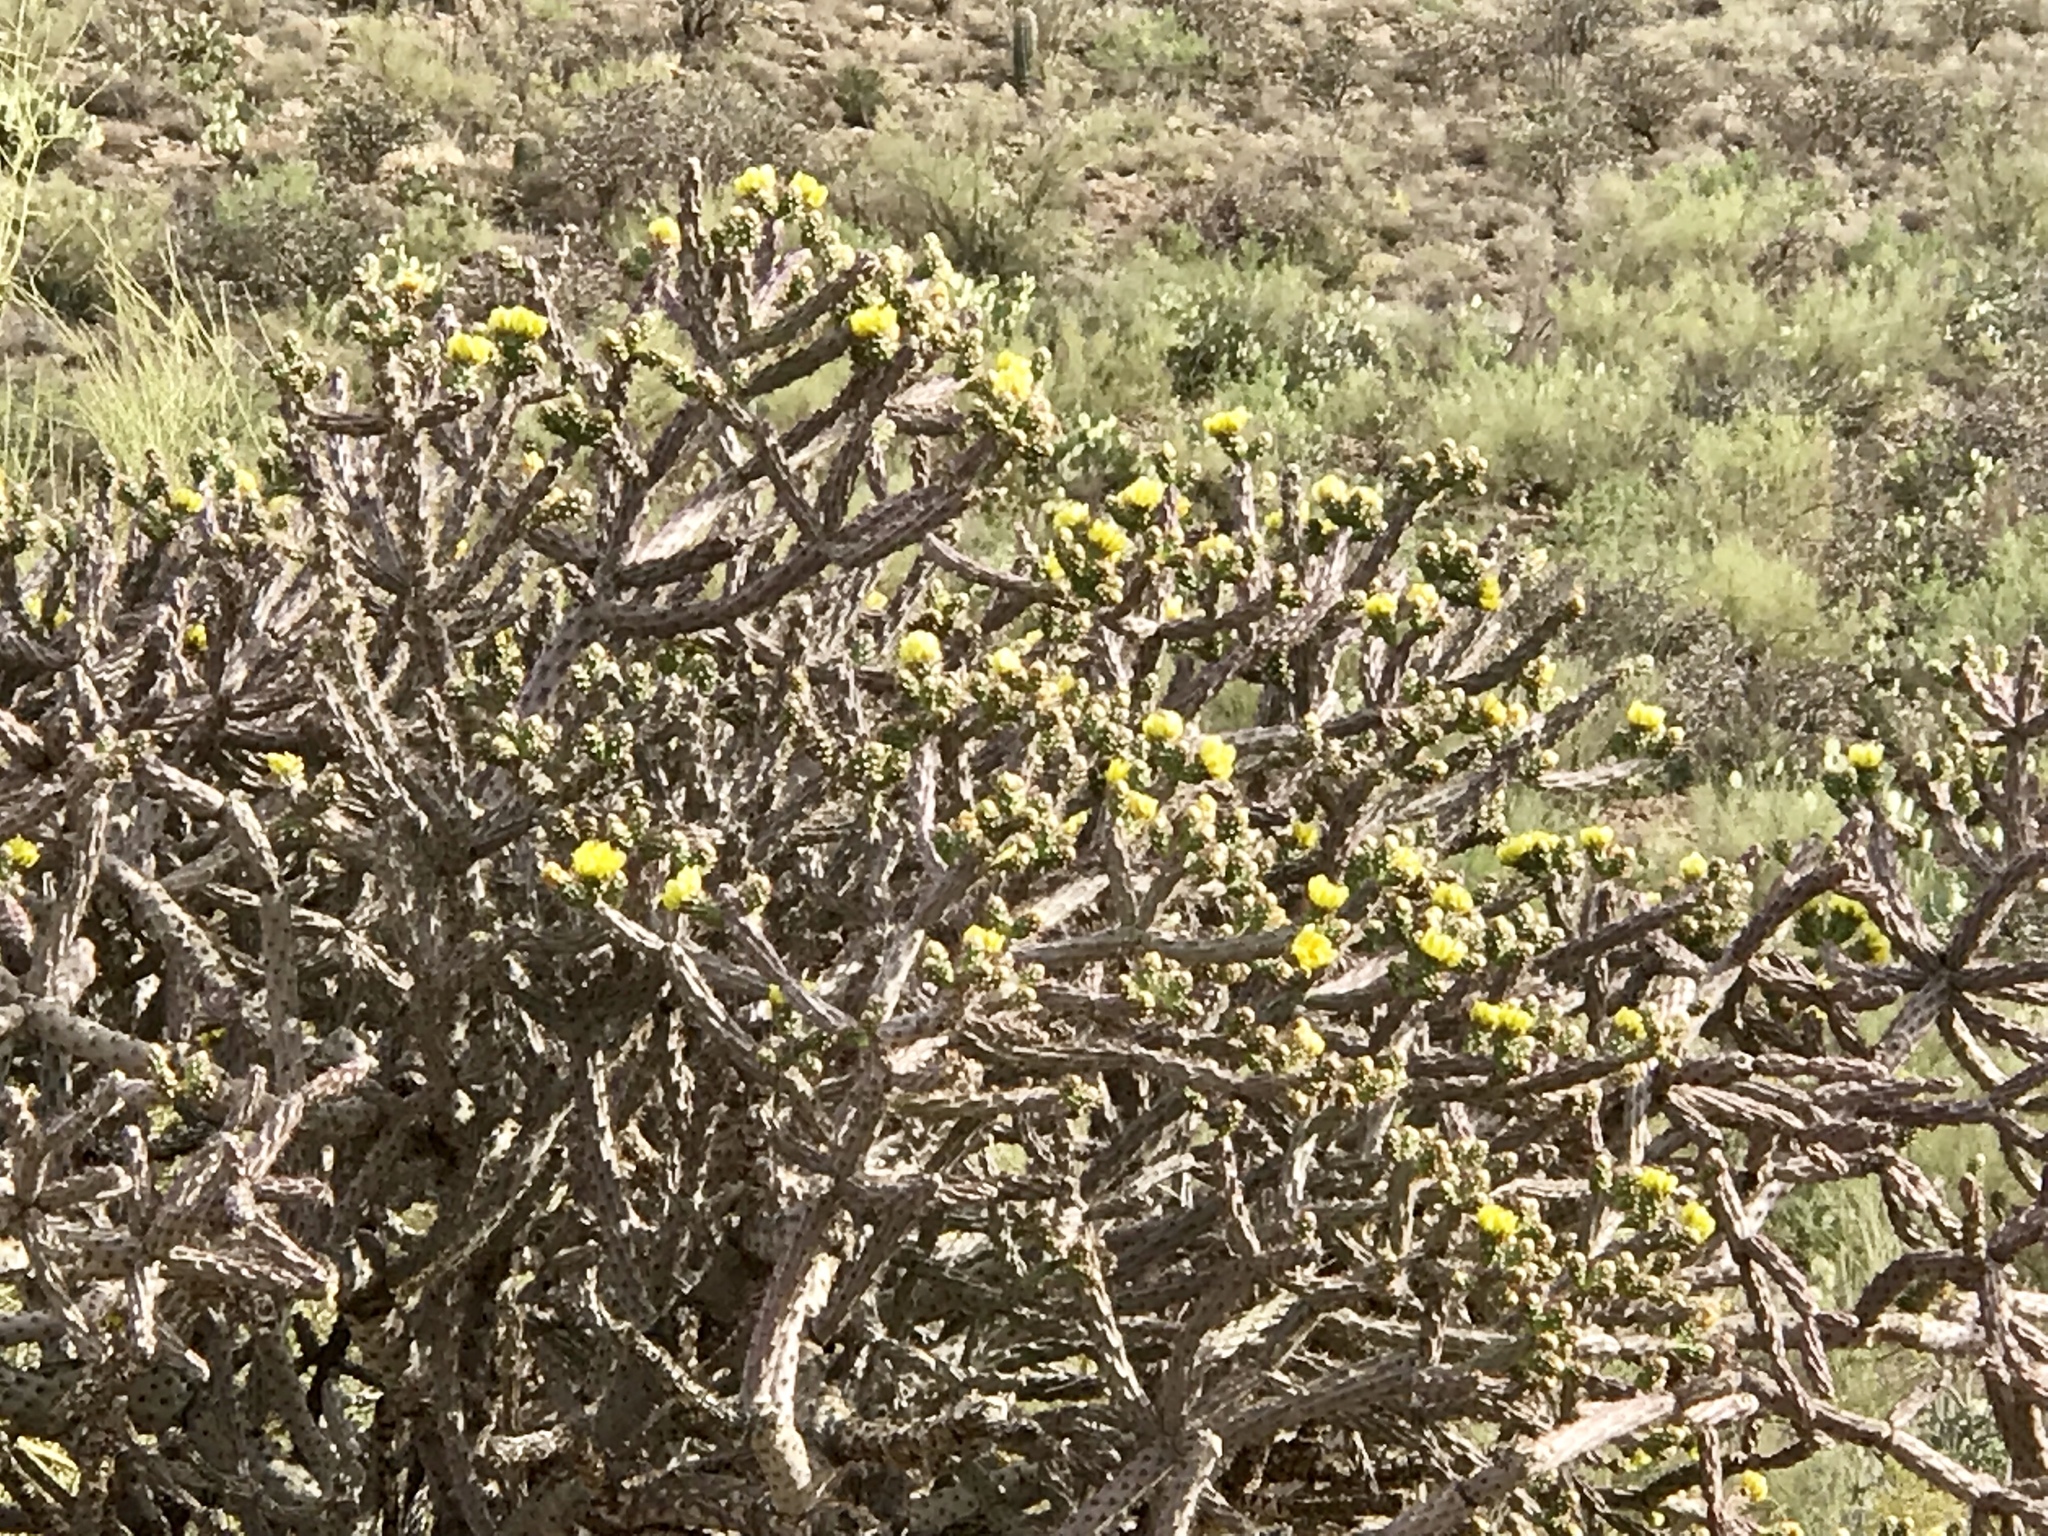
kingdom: Plantae
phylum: Tracheophyta
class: Magnoliopsida
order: Caryophyllales
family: Cactaceae
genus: Cylindropuntia
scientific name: Cylindropuntia thurberi
